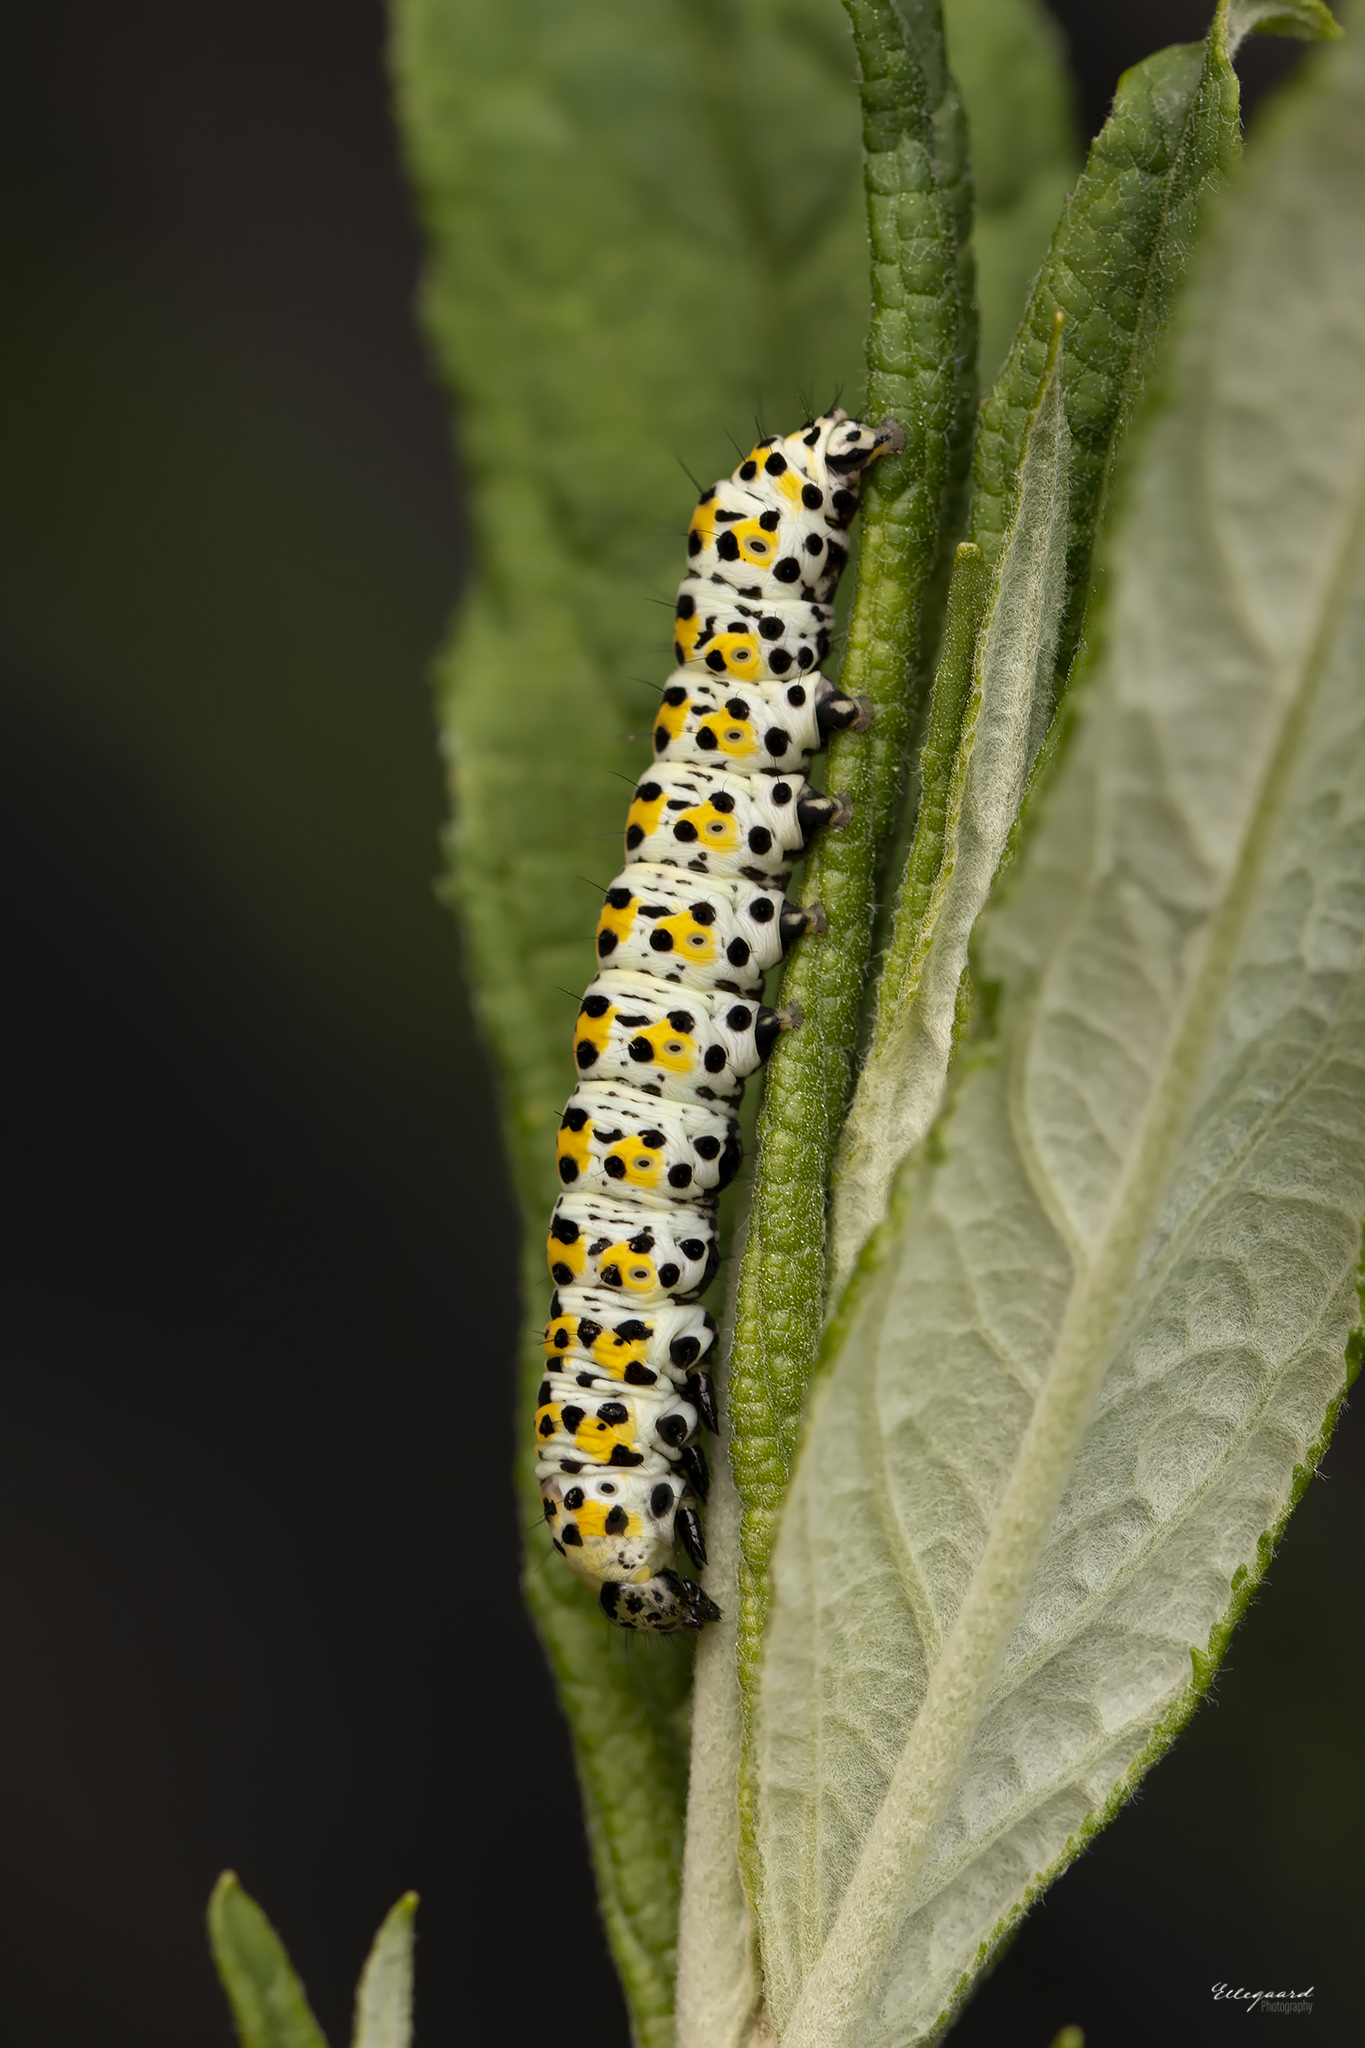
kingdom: Animalia
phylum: Arthropoda
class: Insecta
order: Lepidoptera
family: Noctuidae
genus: Cucullia
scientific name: Cucullia verbasci
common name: Mullein
